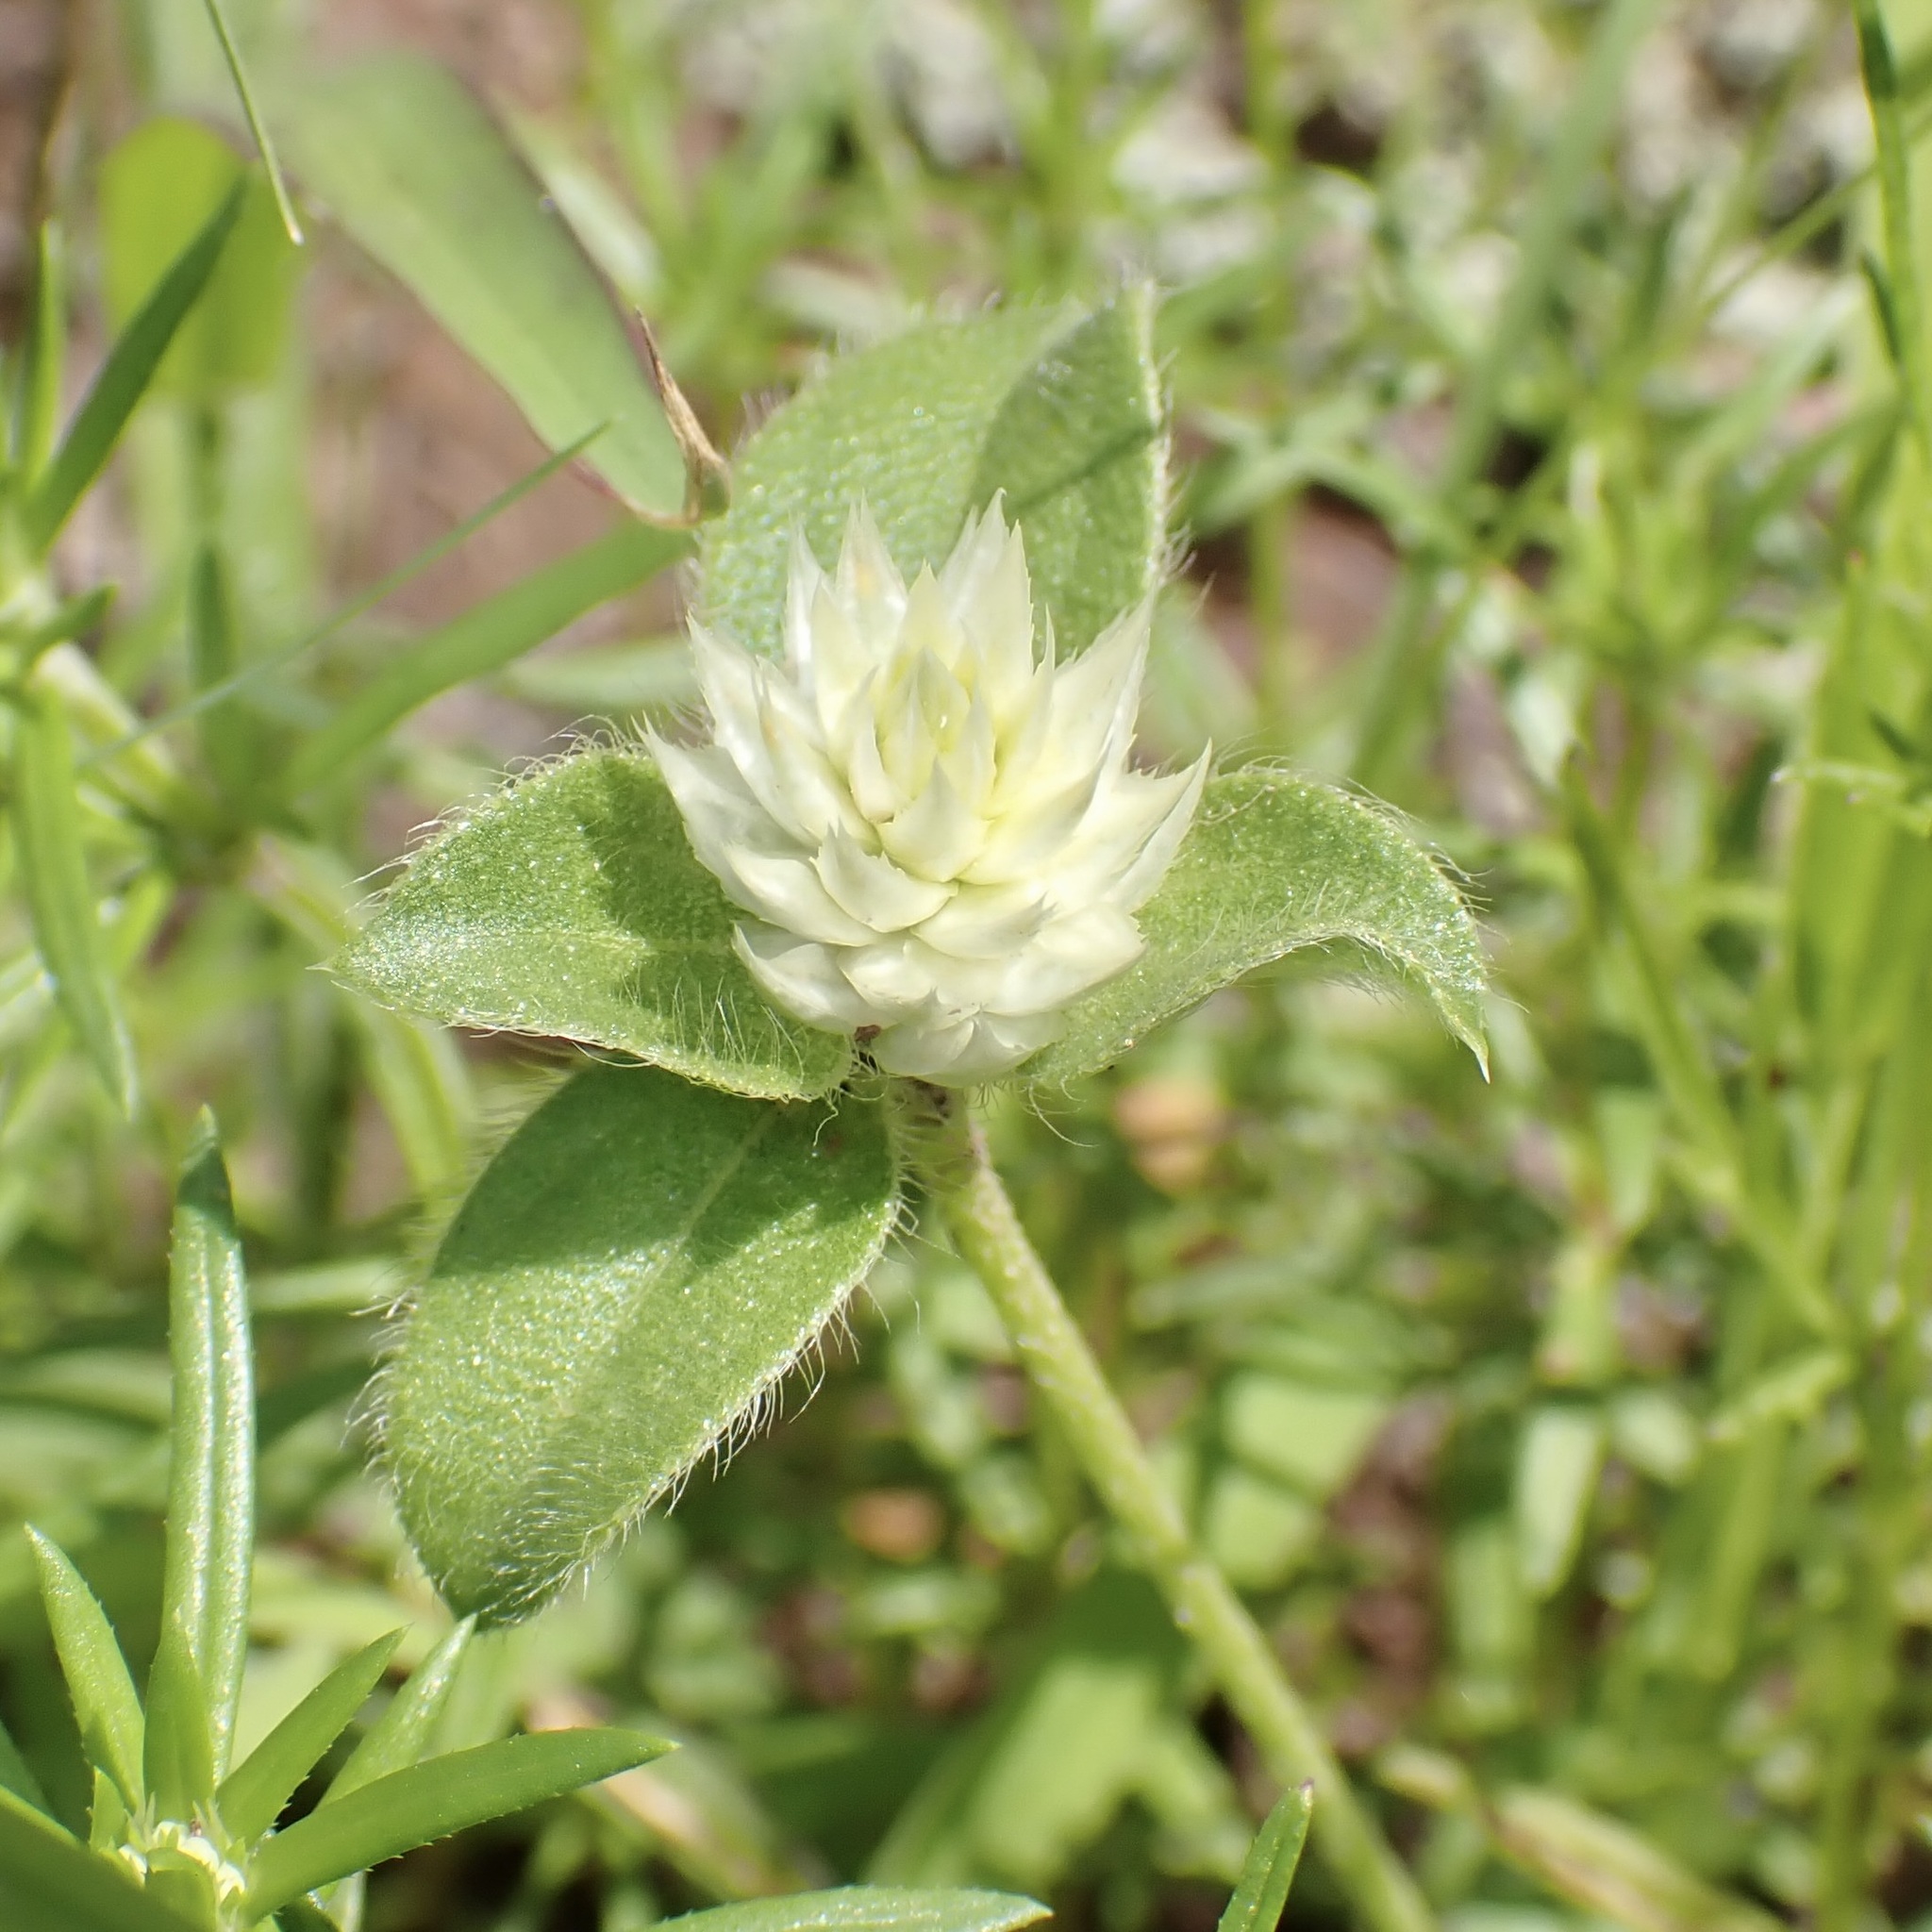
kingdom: Plantae
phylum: Tracheophyta
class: Magnoliopsida
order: Caryophyllales
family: Amaranthaceae
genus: Gomphrena
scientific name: Gomphrena nitida
